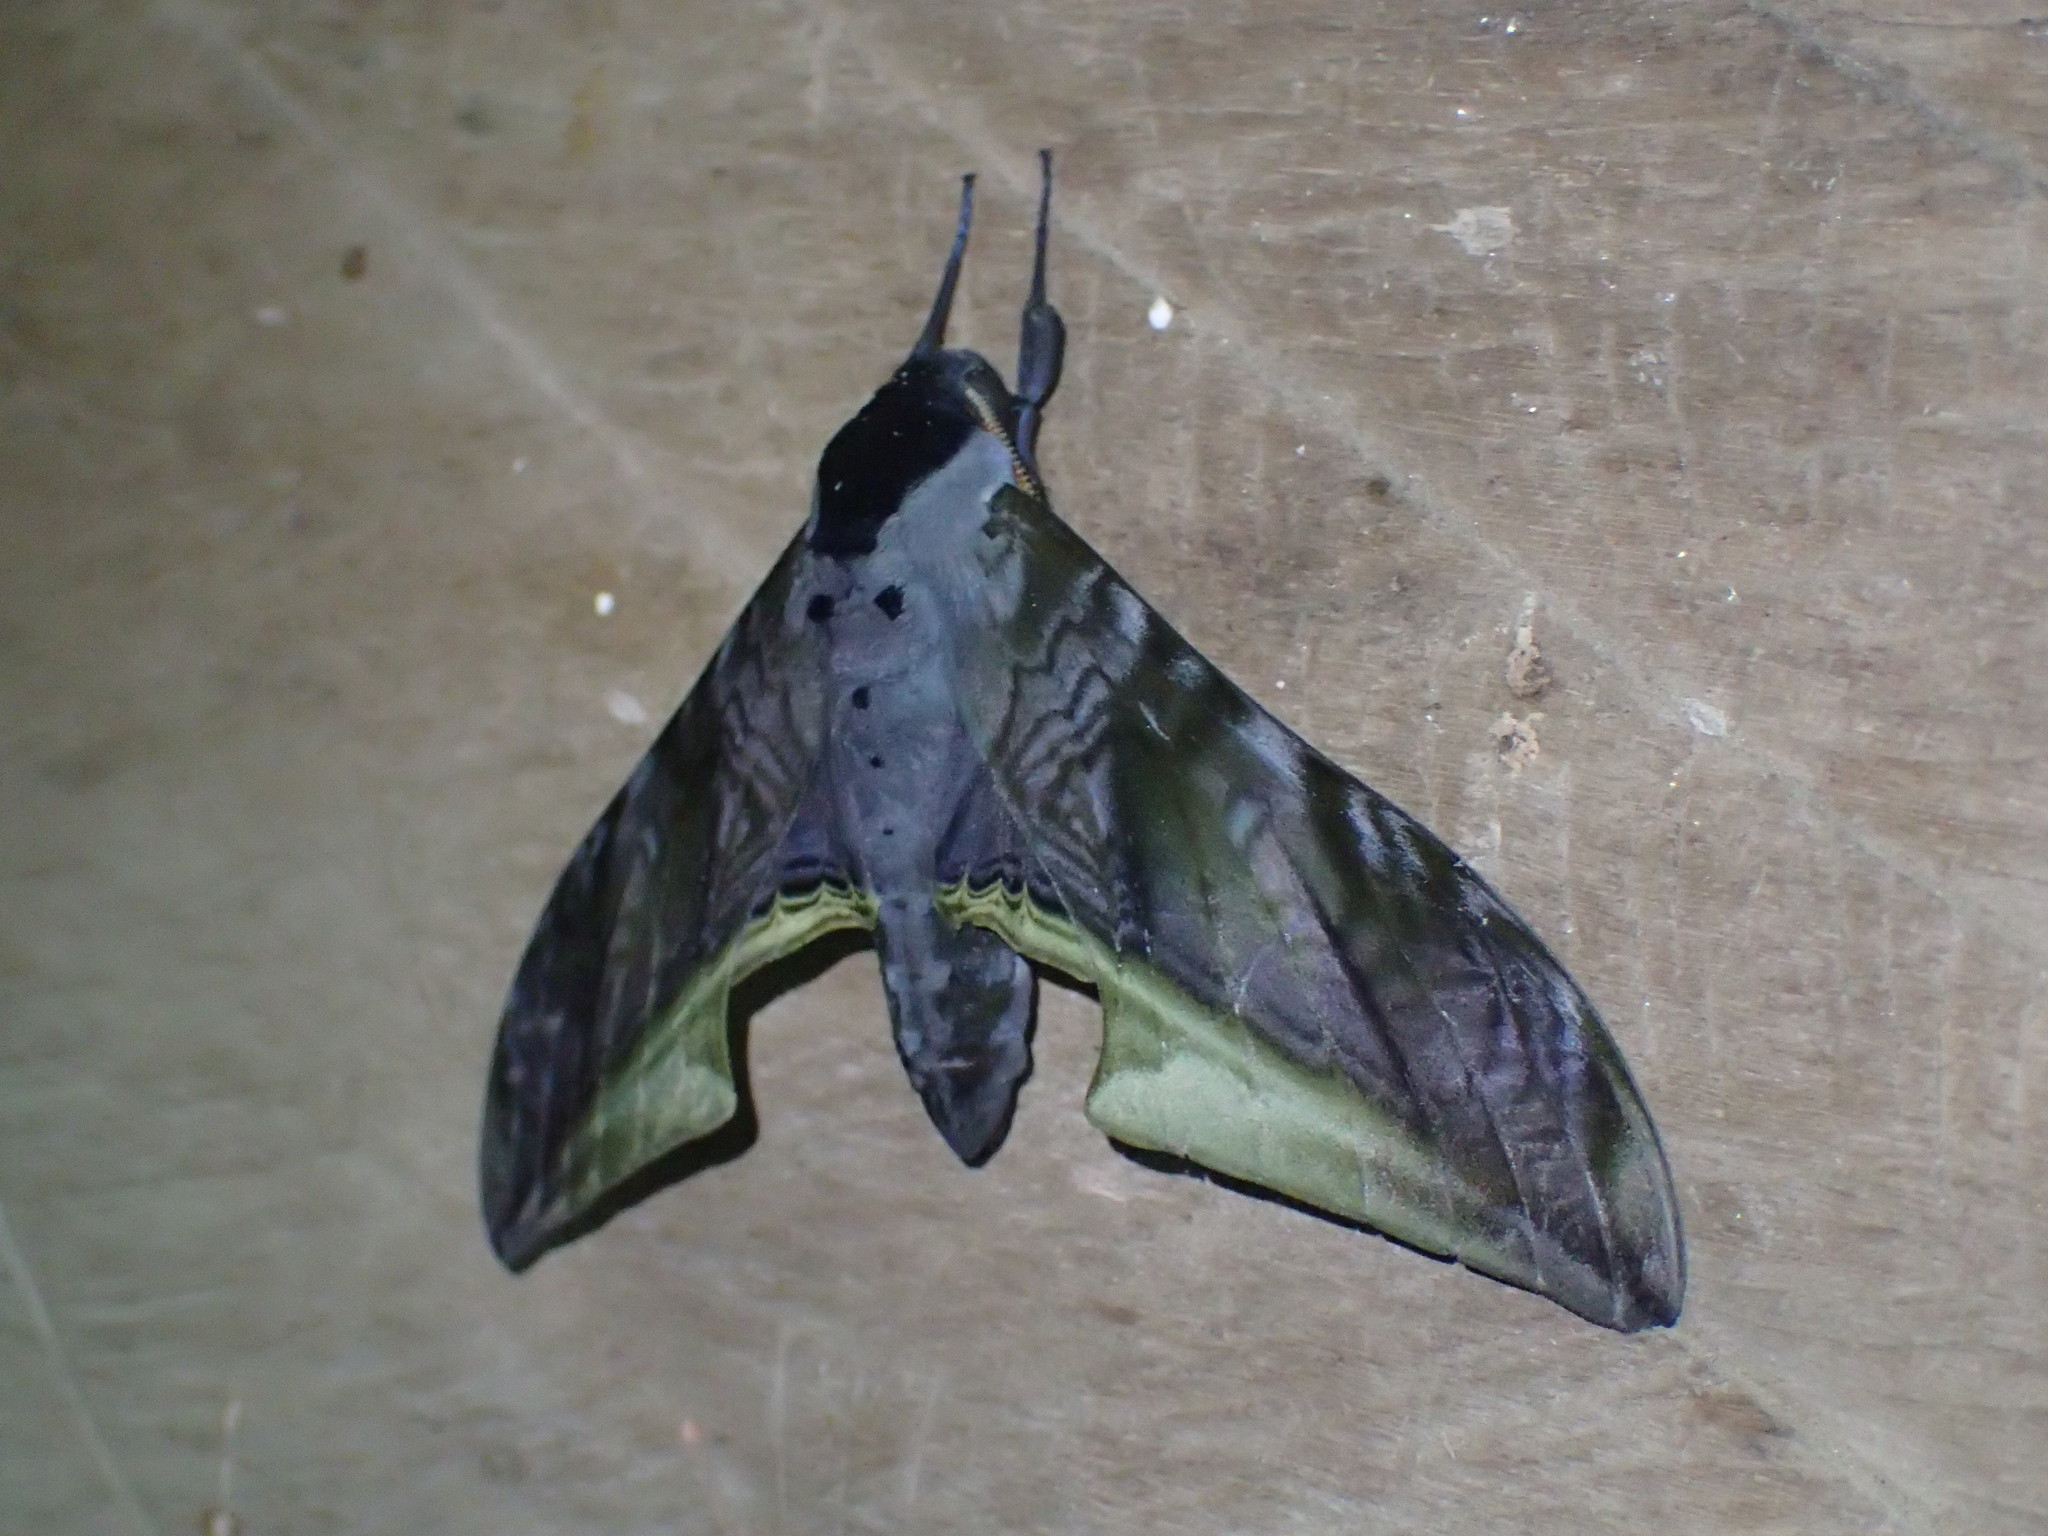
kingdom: Animalia
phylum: Arthropoda
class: Insecta
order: Lepidoptera
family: Sphingidae
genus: Polyptychus
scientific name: Polyptychus
